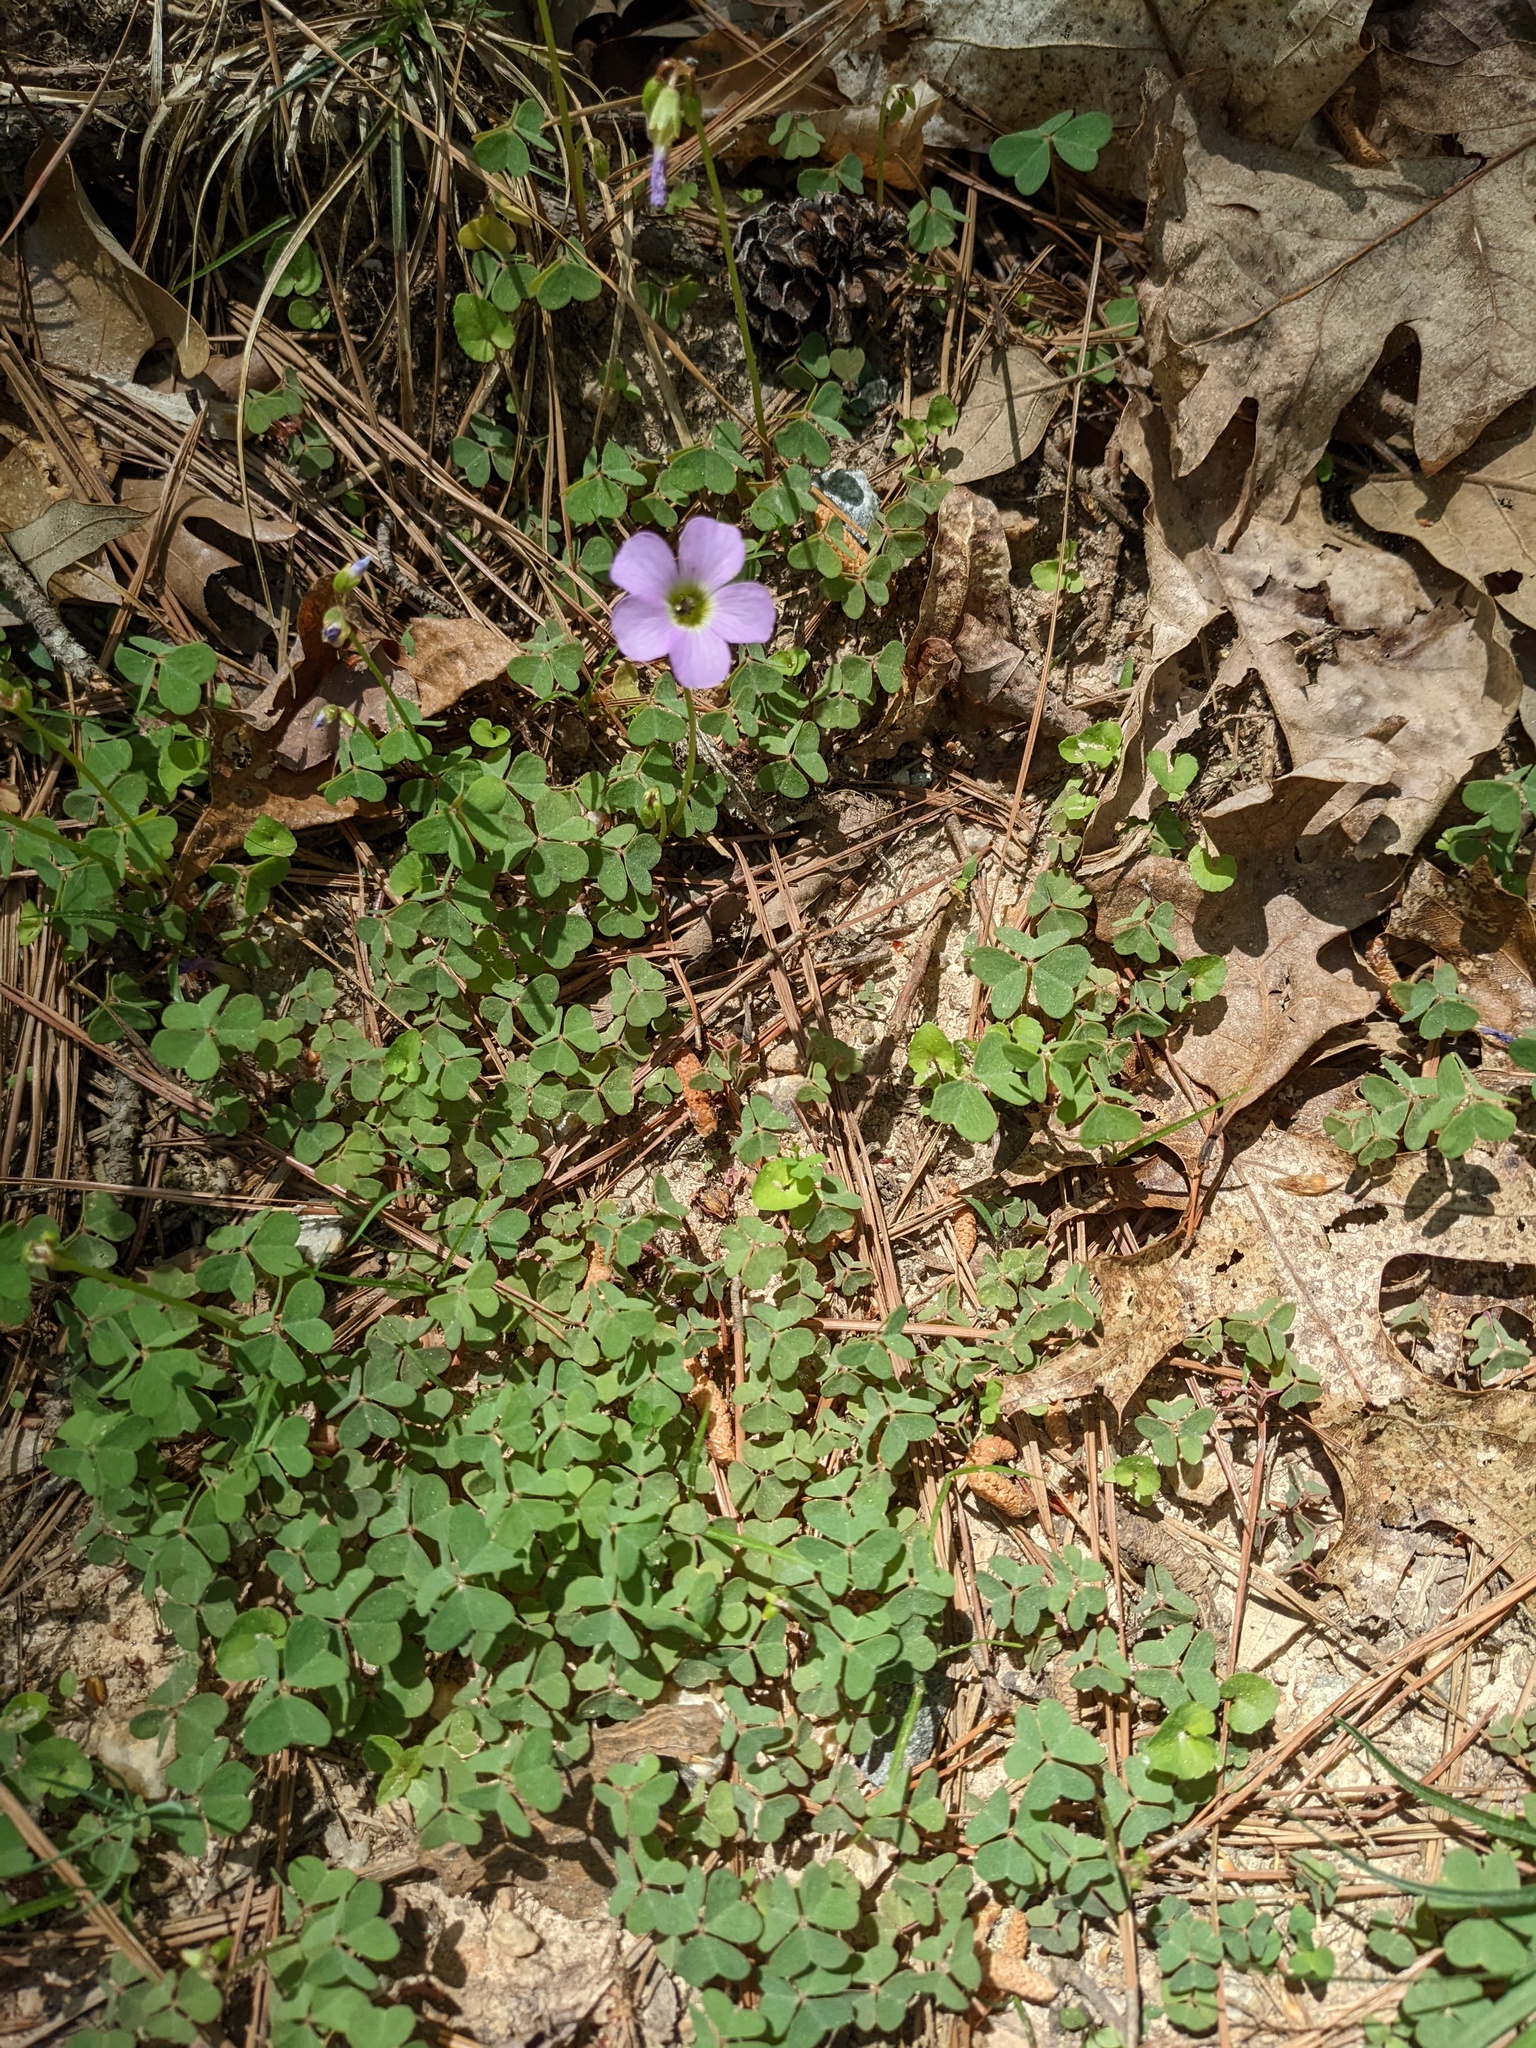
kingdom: Plantae
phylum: Tracheophyta
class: Magnoliopsida
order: Oxalidales
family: Oxalidaceae
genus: Oxalis
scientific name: Oxalis violacea
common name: Violet wood-sorrel
